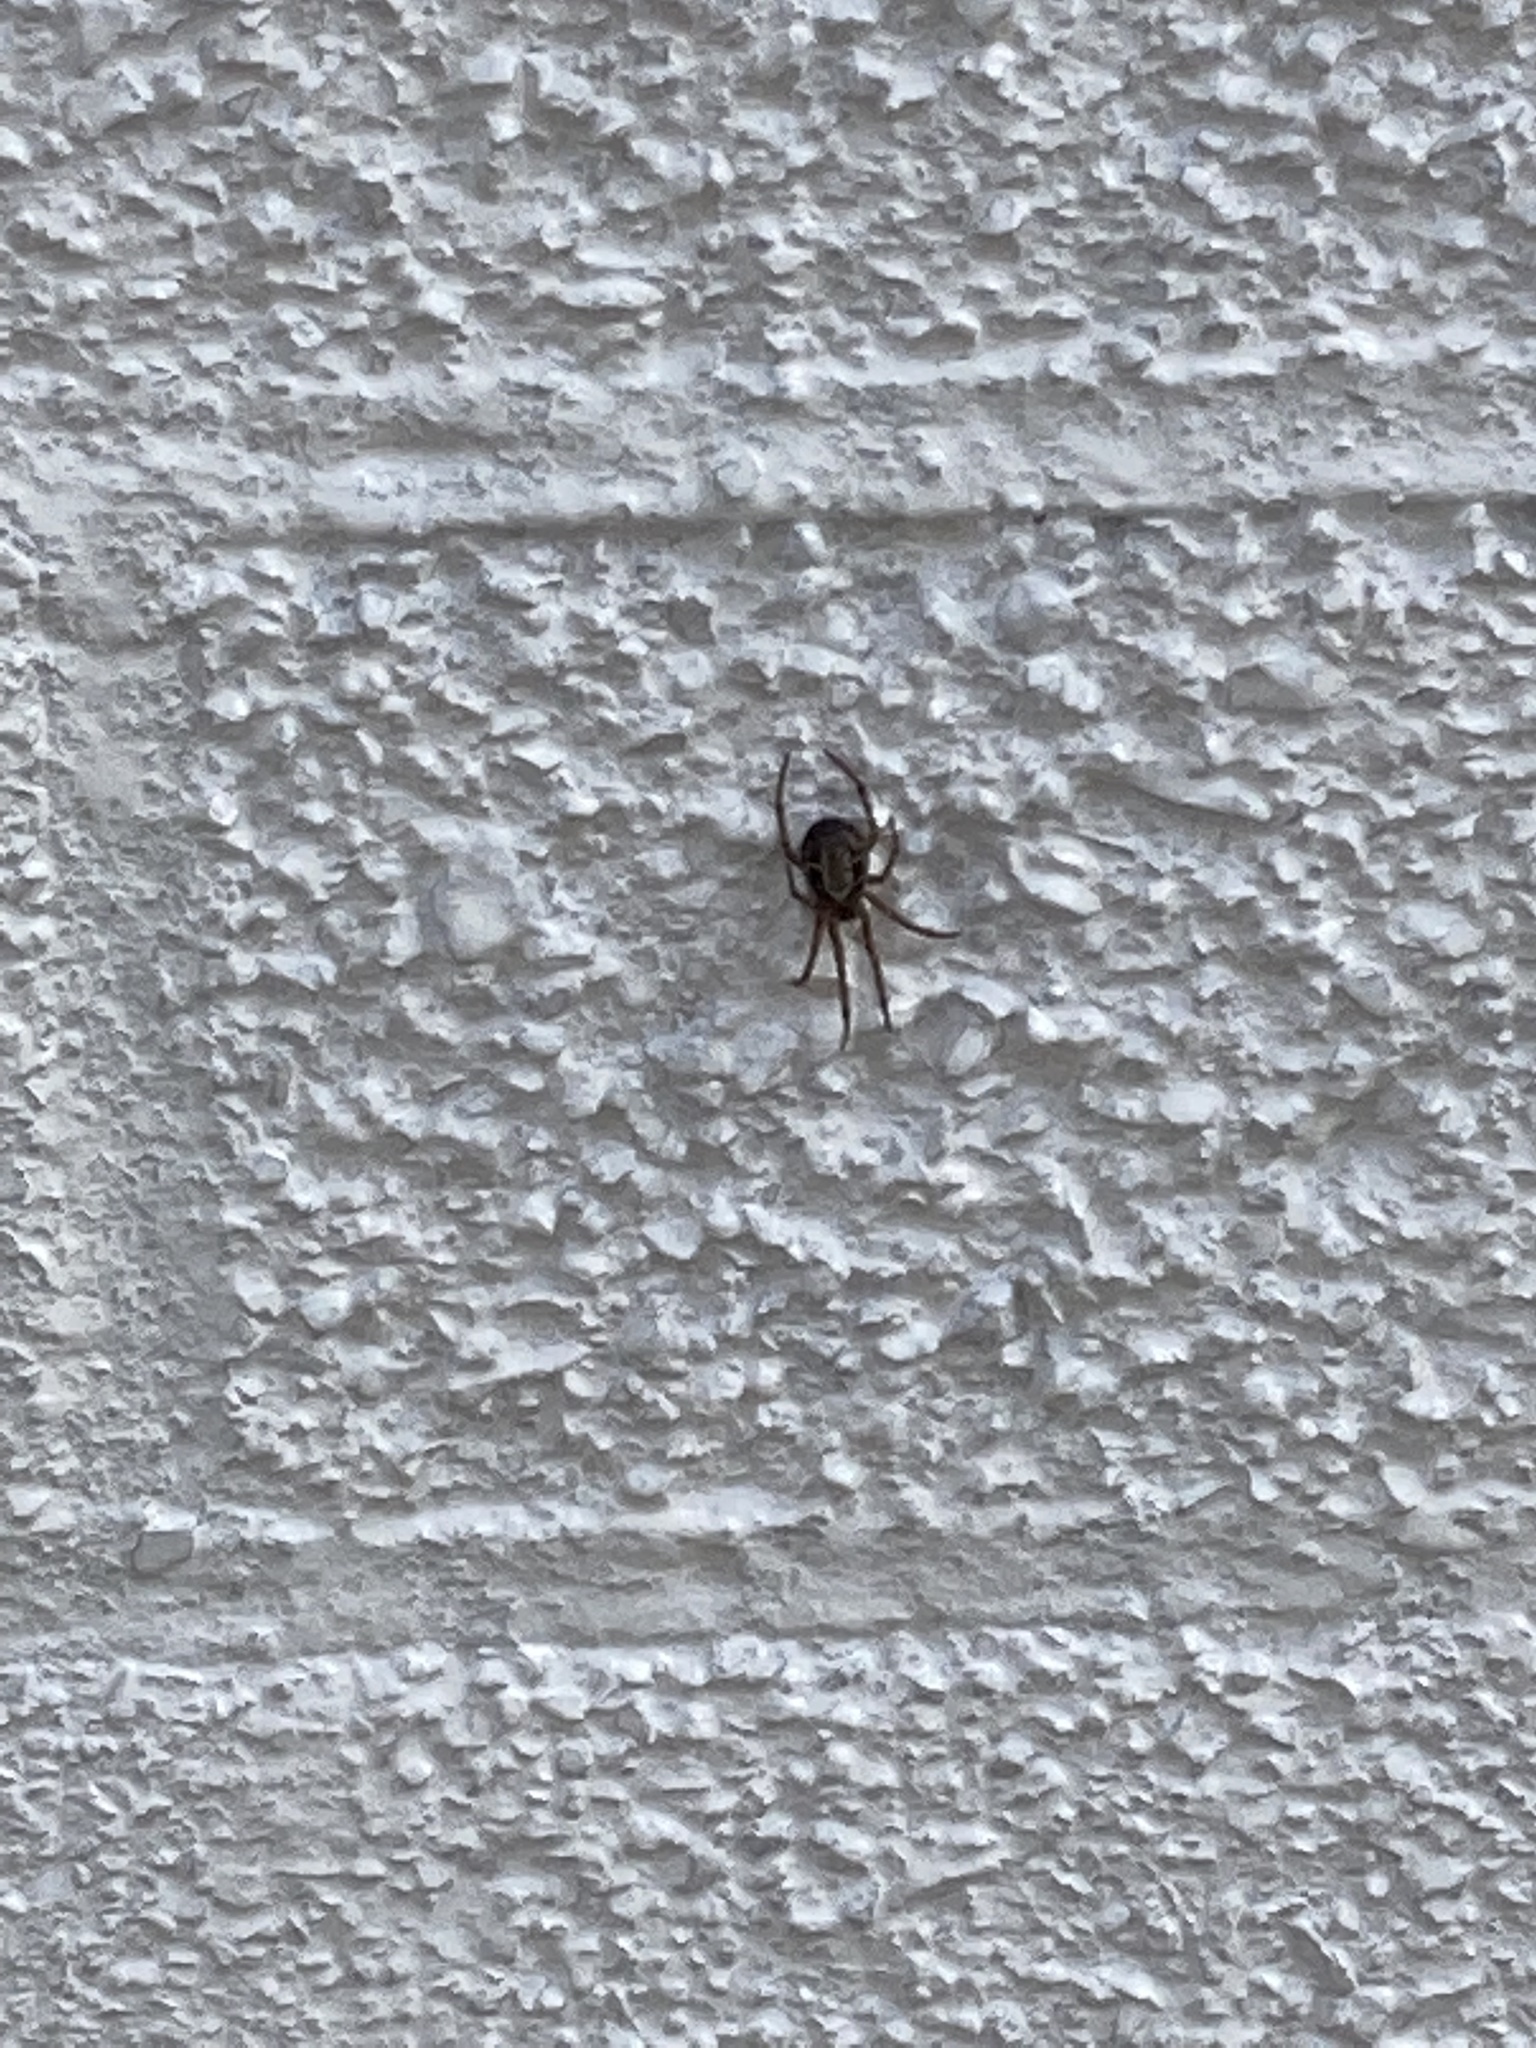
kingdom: Animalia
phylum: Arthropoda
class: Arachnida
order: Araneae
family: Theridiidae
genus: Steatoda
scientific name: Steatoda nobilis
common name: Cobweb weaver
